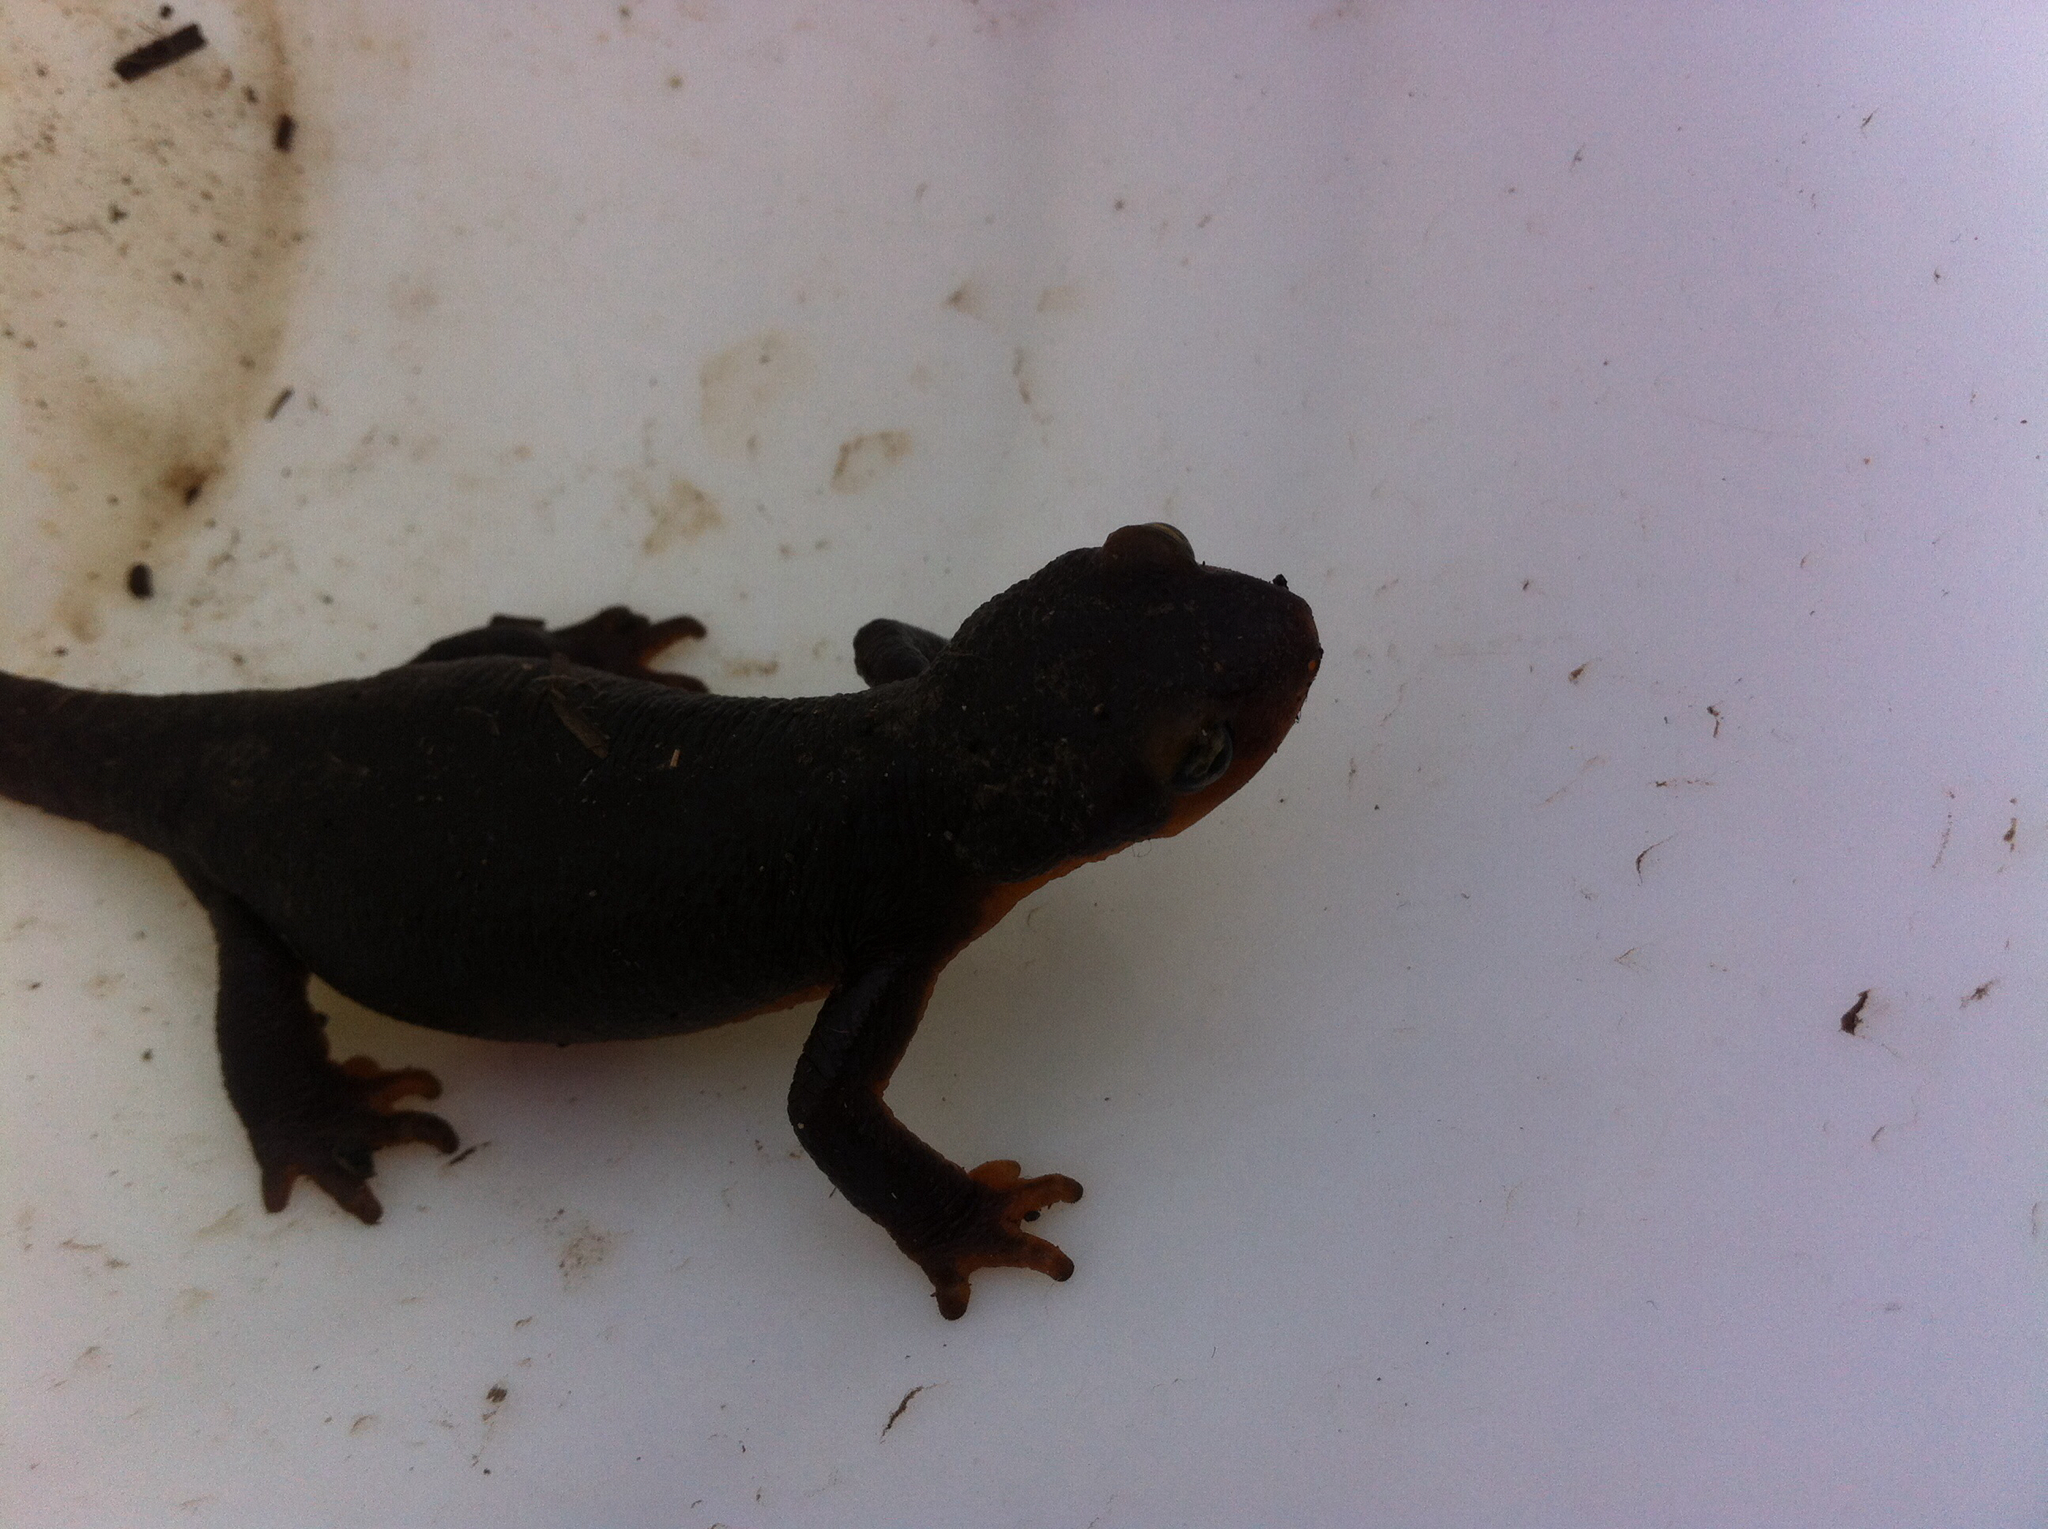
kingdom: Animalia
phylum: Chordata
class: Amphibia
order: Caudata
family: Salamandridae
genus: Taricha
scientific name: Taricha torosa
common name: California newt
